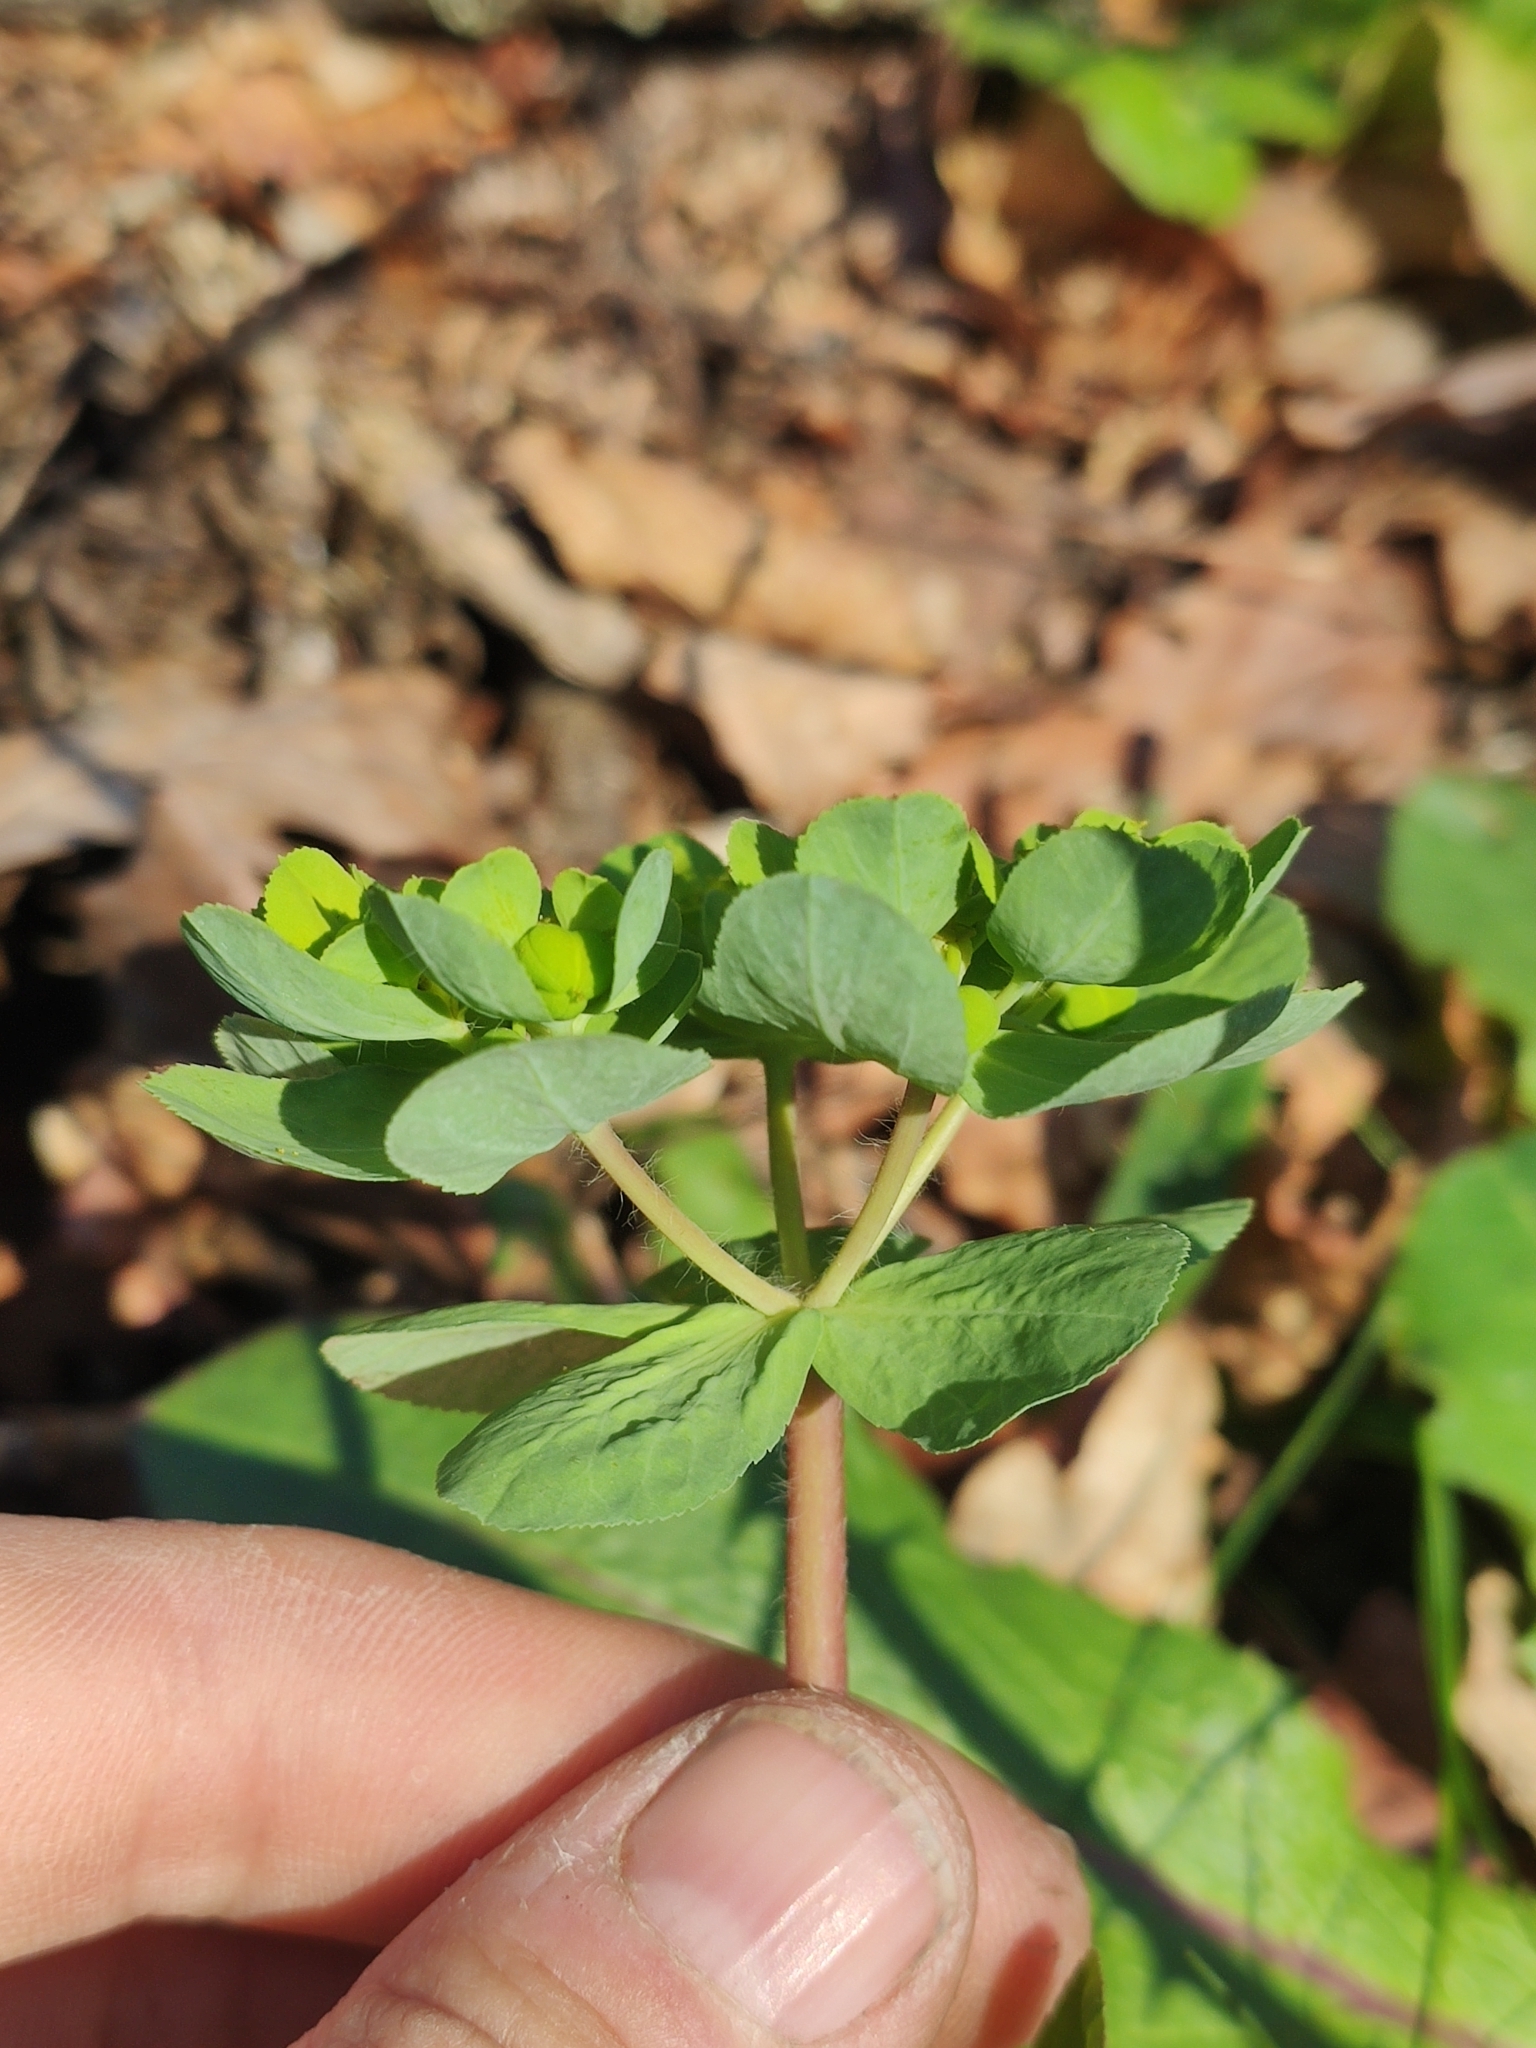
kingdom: Plantae
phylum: Tracheophyta
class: Magnoliopsida
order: Malpighiales
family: Euphorbiaceae
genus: Euphorbia
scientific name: Euphorbia helioscopia
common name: Sun spurge
